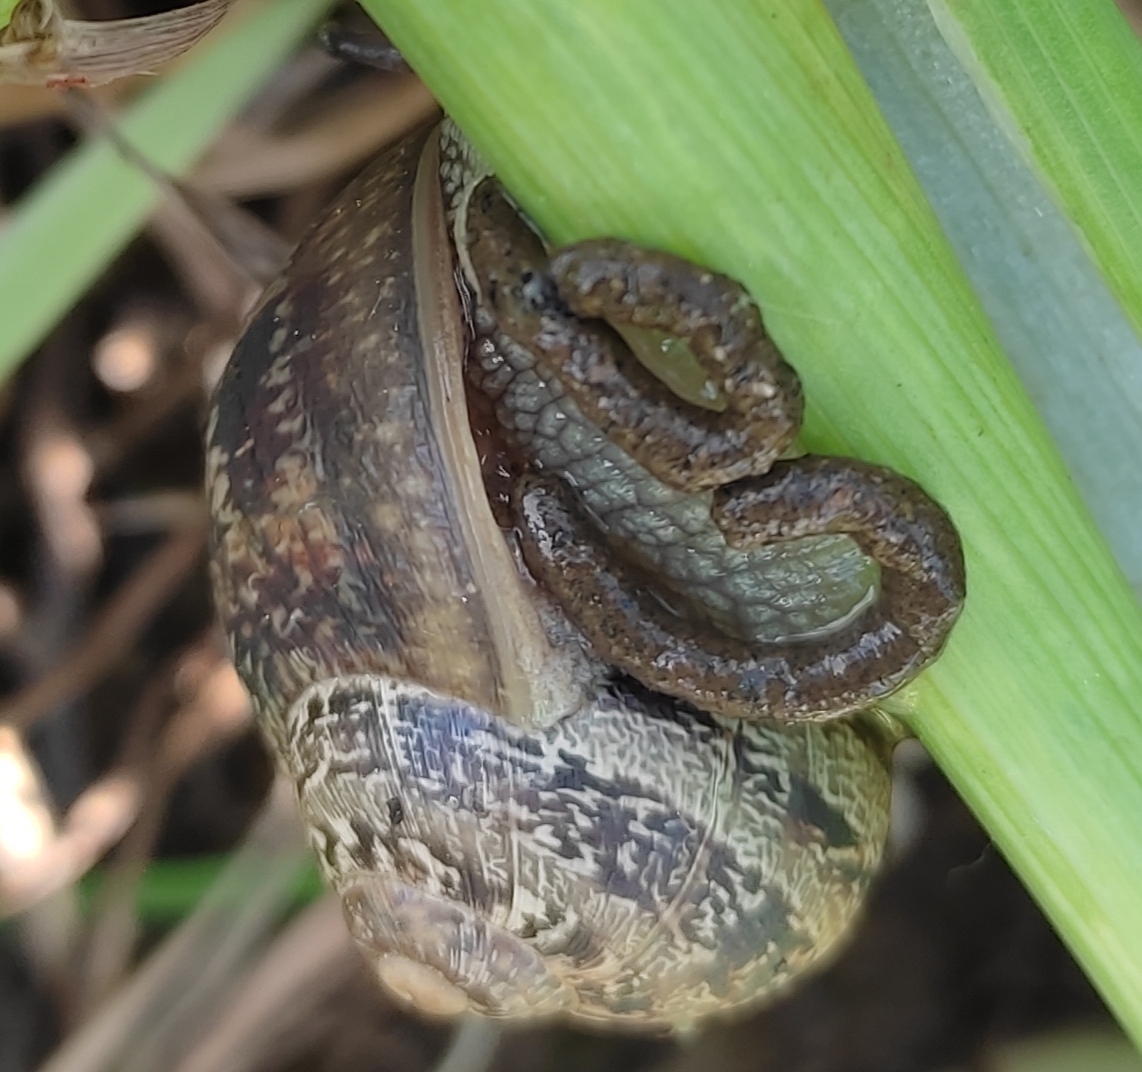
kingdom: Animalia
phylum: Mollusca
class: Gastropoda
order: Stylommatophora
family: Helicidae
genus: Cornu
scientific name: Cornu aspersum
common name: Brown garden snail
